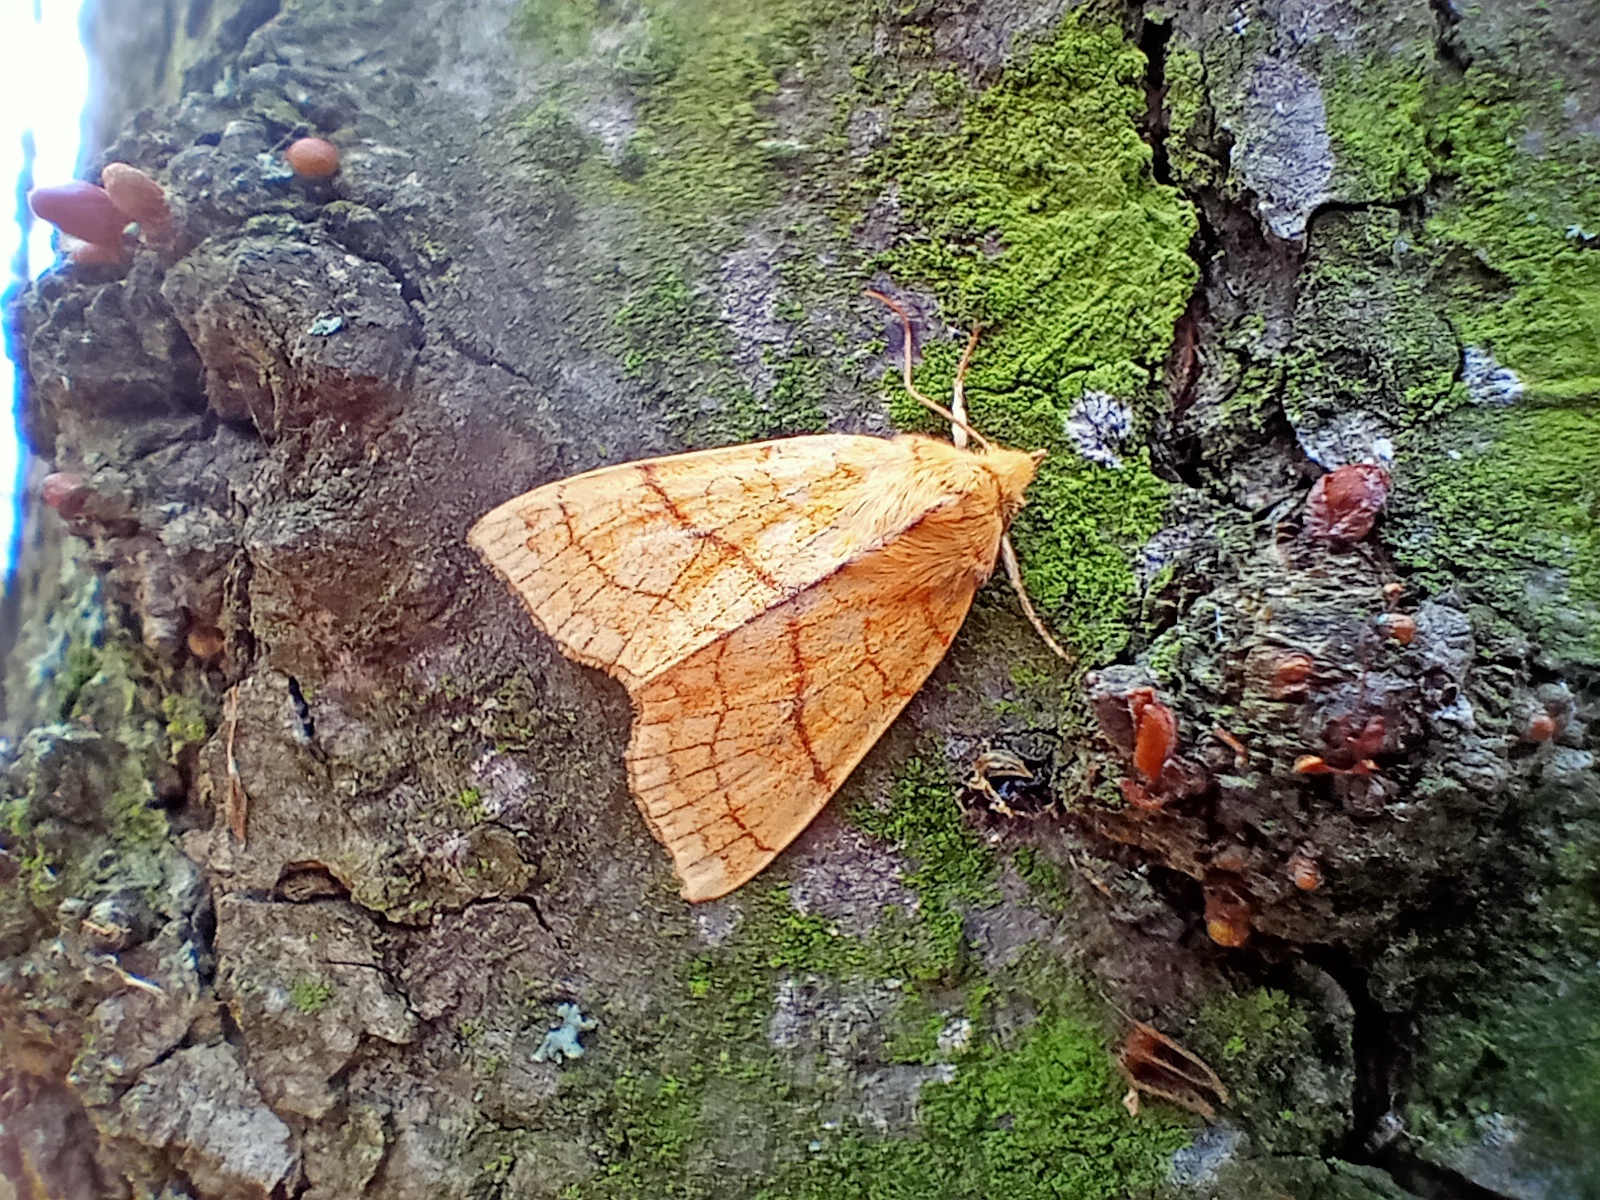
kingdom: Animalia
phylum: Arthropoda
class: Insecta
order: Lepidoptera
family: Noctuidae
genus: Tiliacea
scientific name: Tiliacea citrago
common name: Orange sallow
